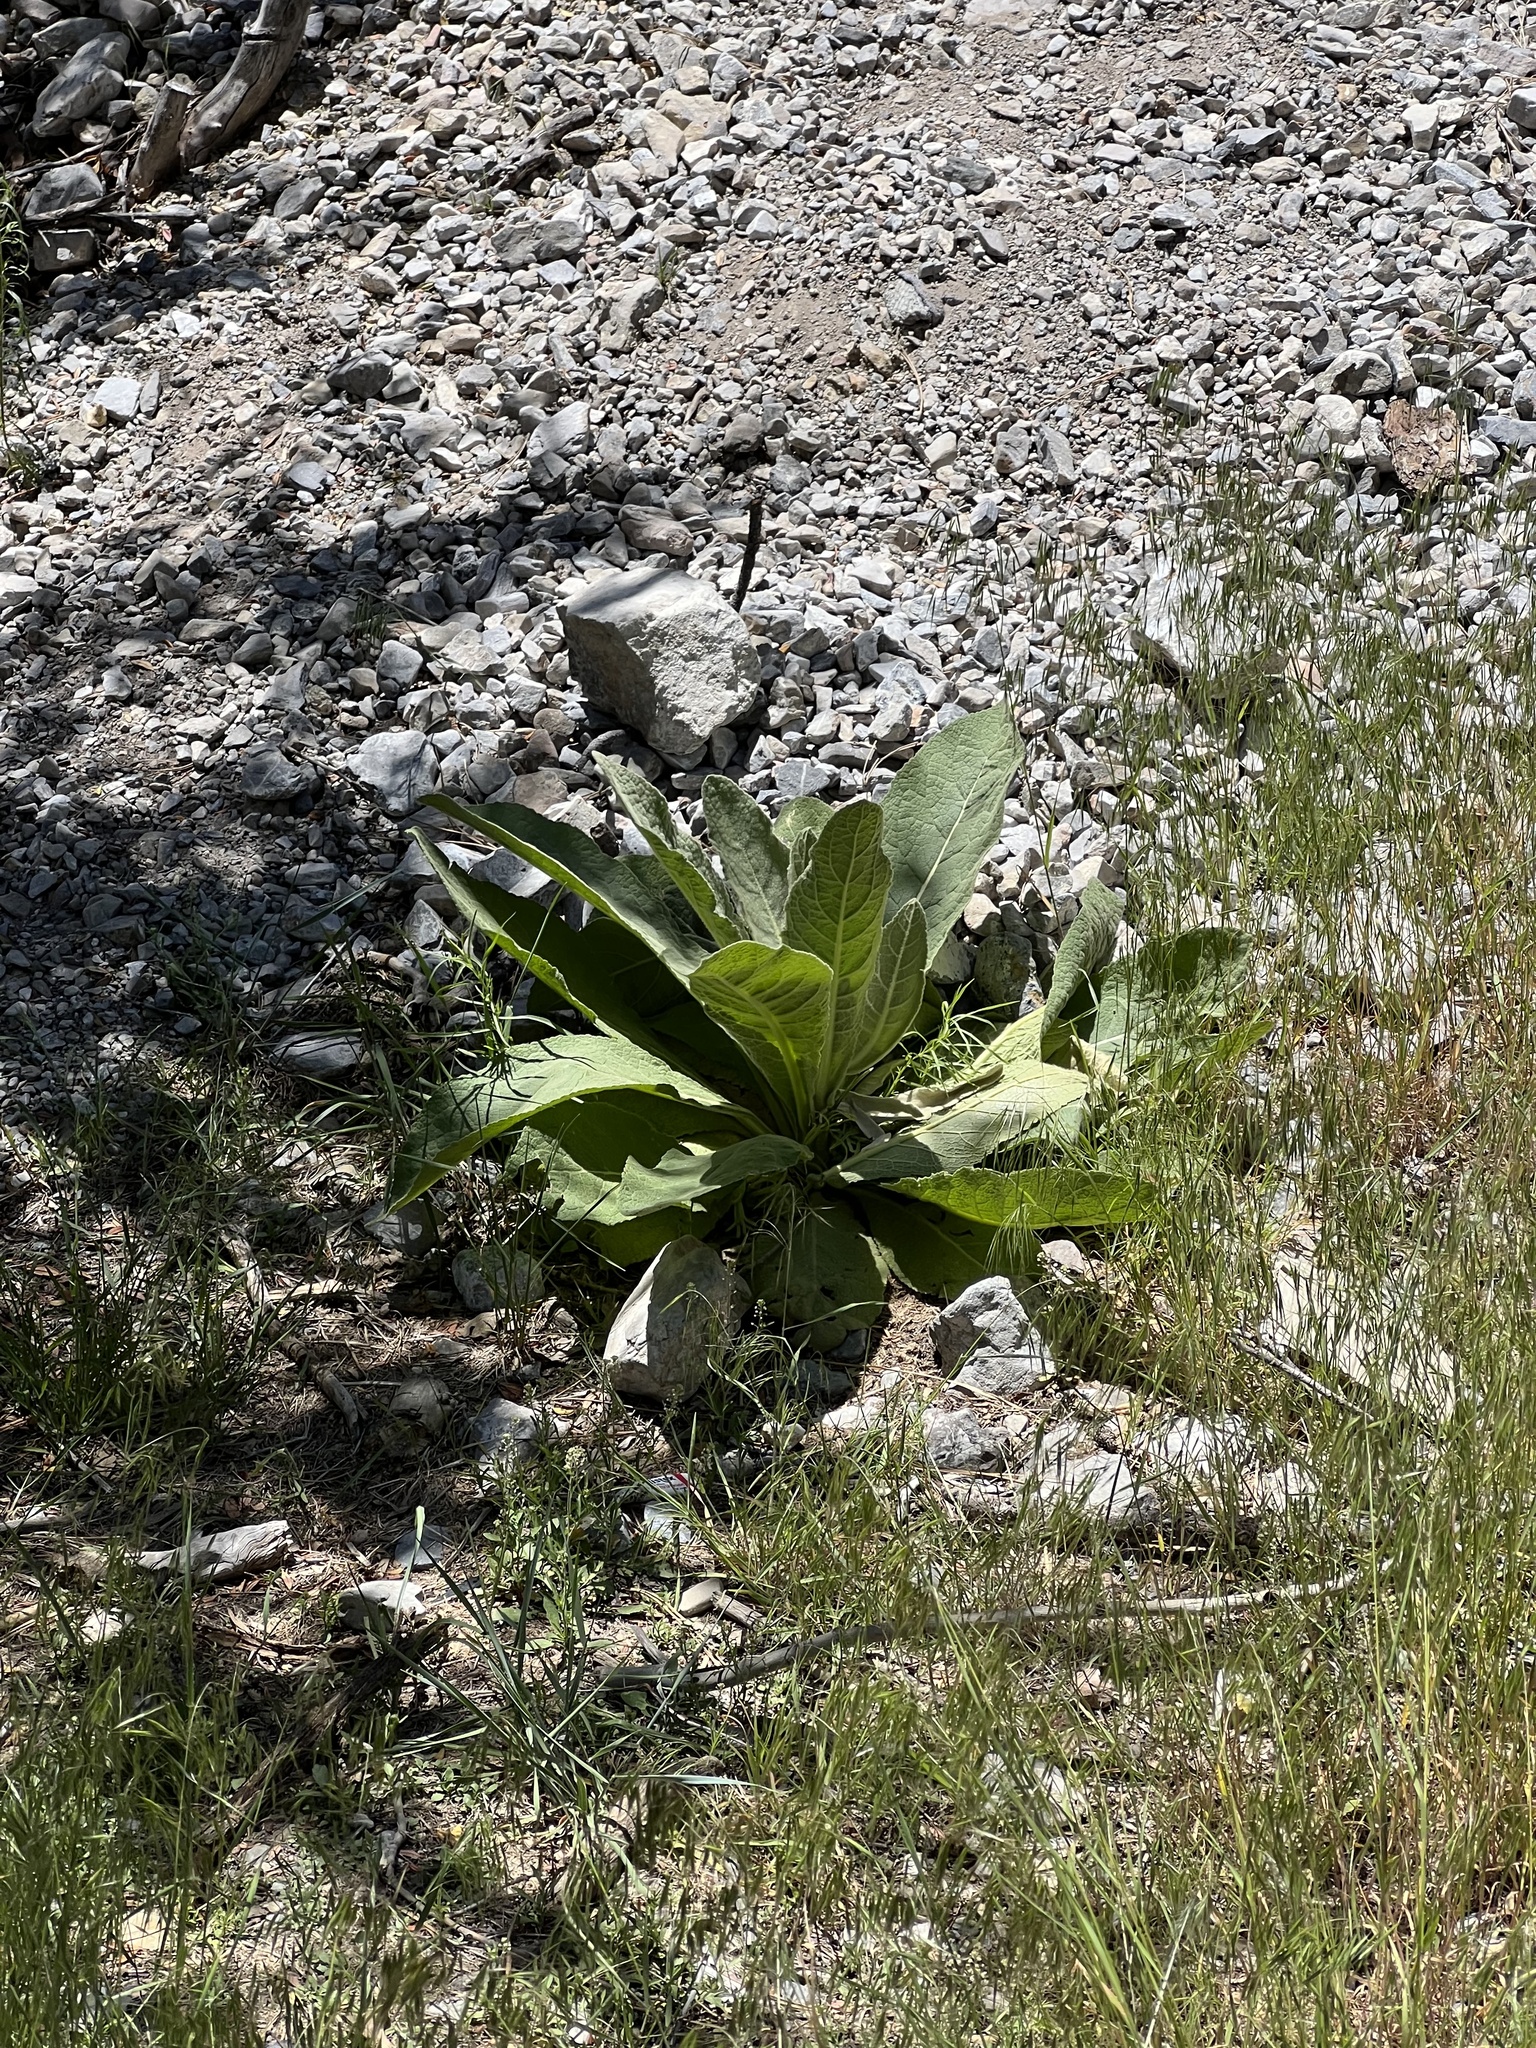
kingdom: Plantae
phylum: Tracheophyta
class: Magnoliopsida
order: Lamiales
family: Scrophulariaceae
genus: Verbascum
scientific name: Verbascum thapsus
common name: Common mullein
